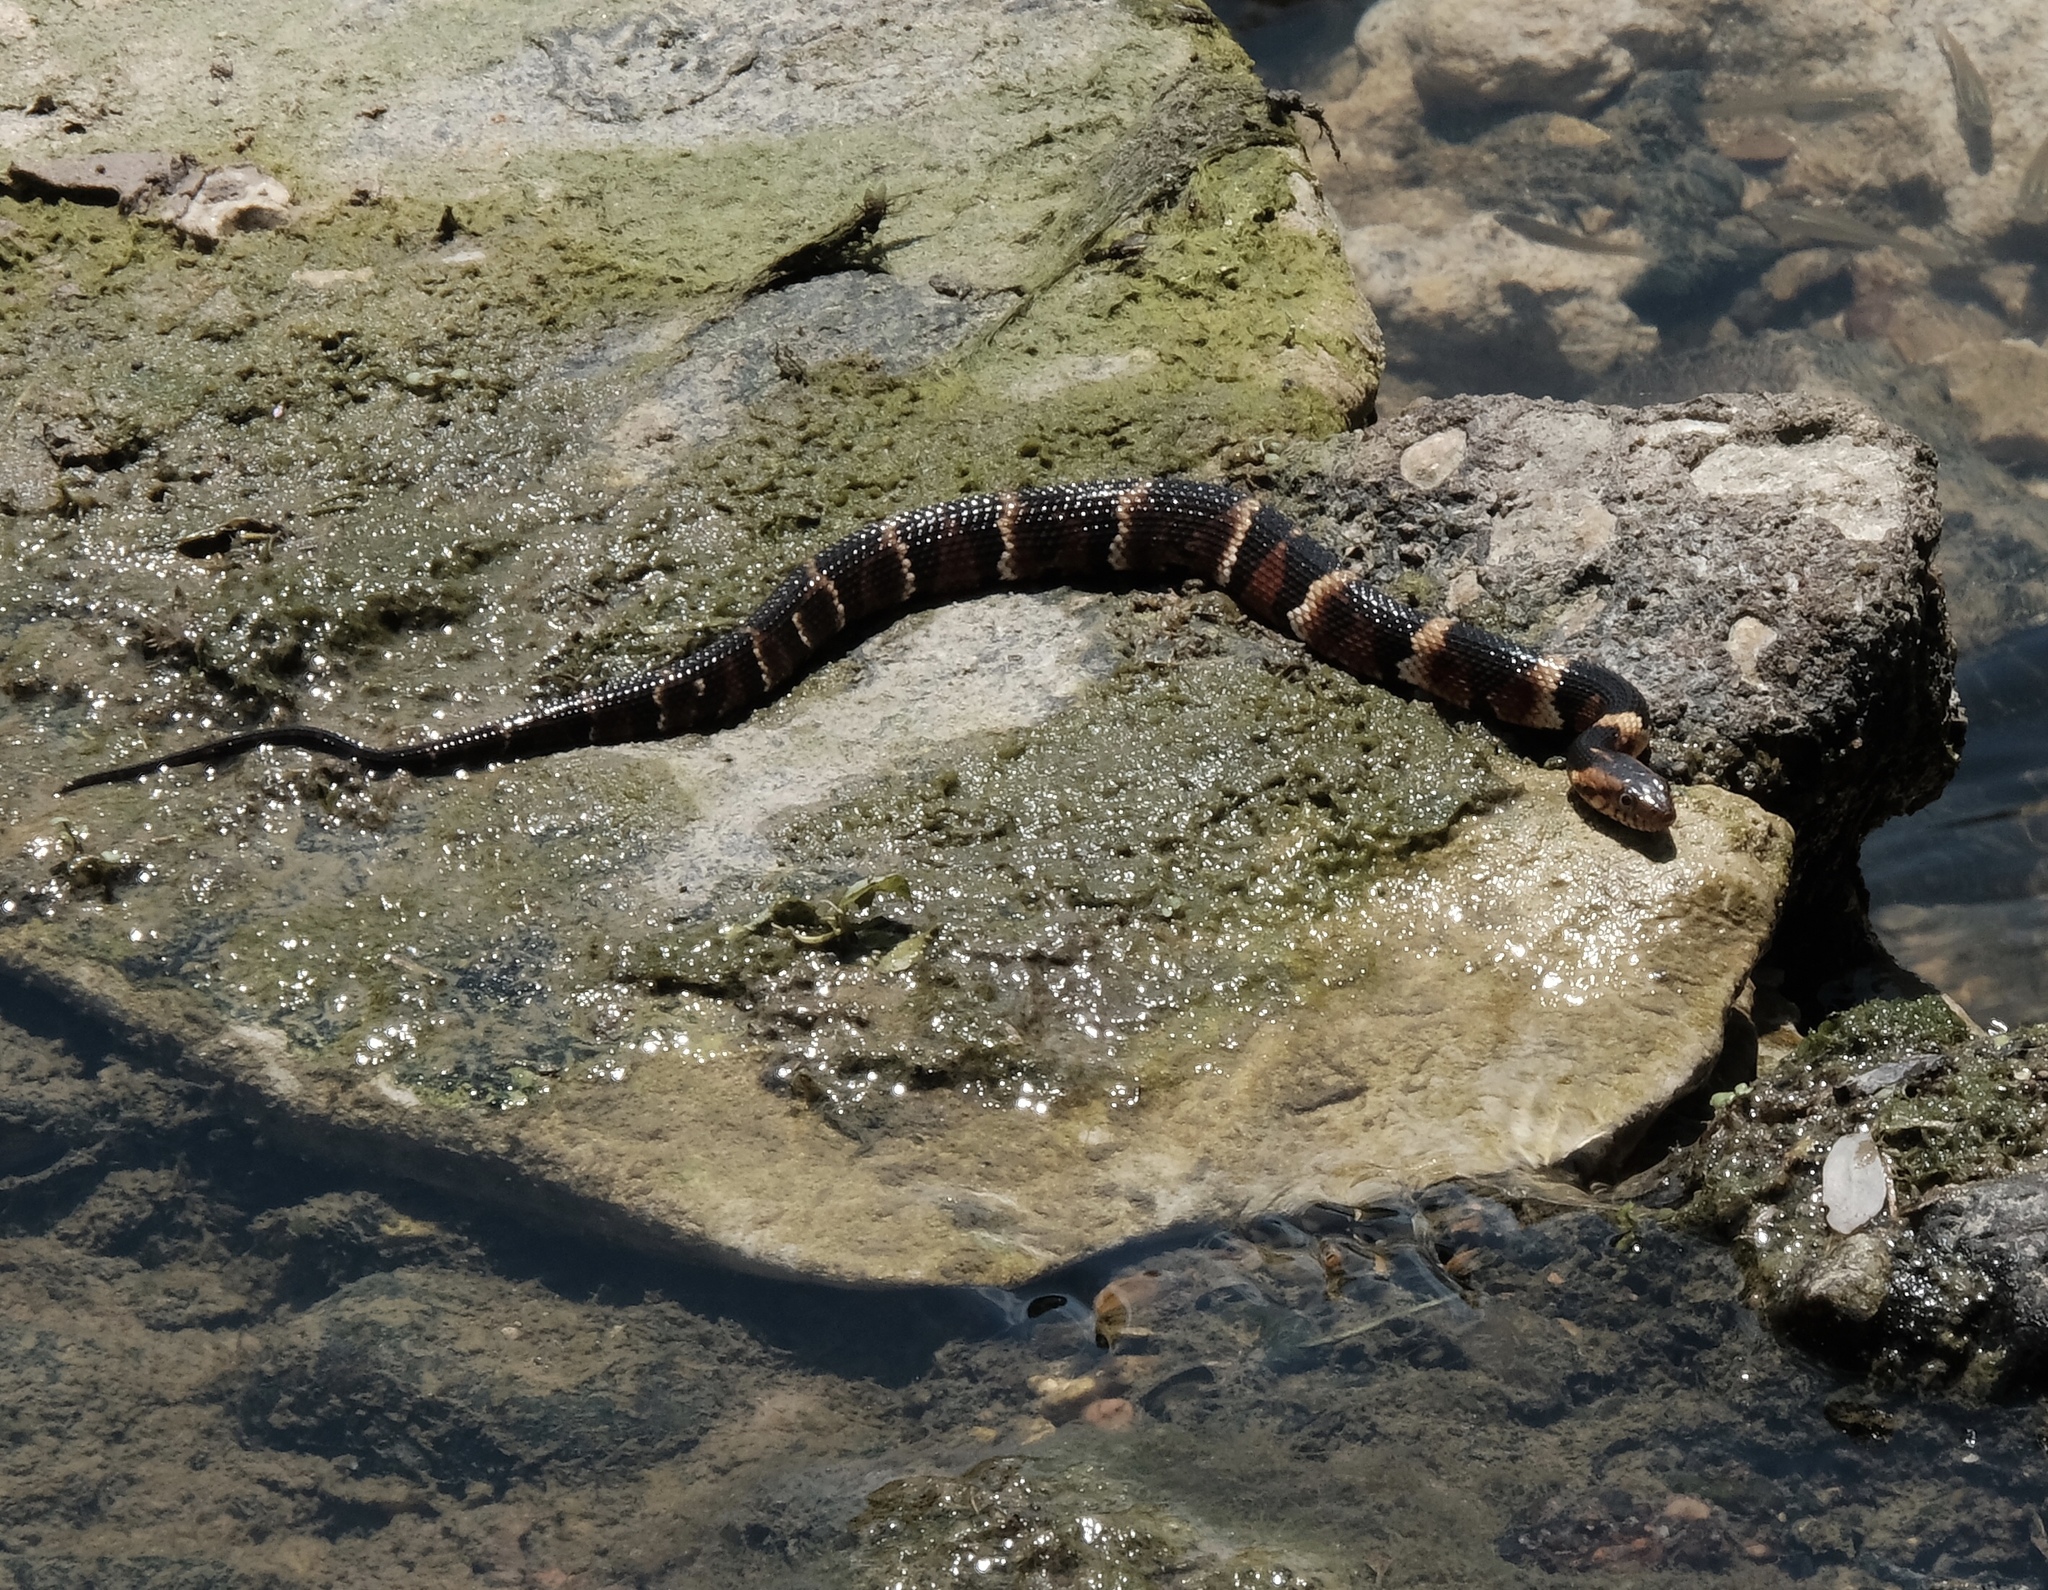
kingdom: Animalia
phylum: Chordata
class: Squamata
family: Colubridae
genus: Nerodia
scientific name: Nerodia fasciata
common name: Southern water snake
